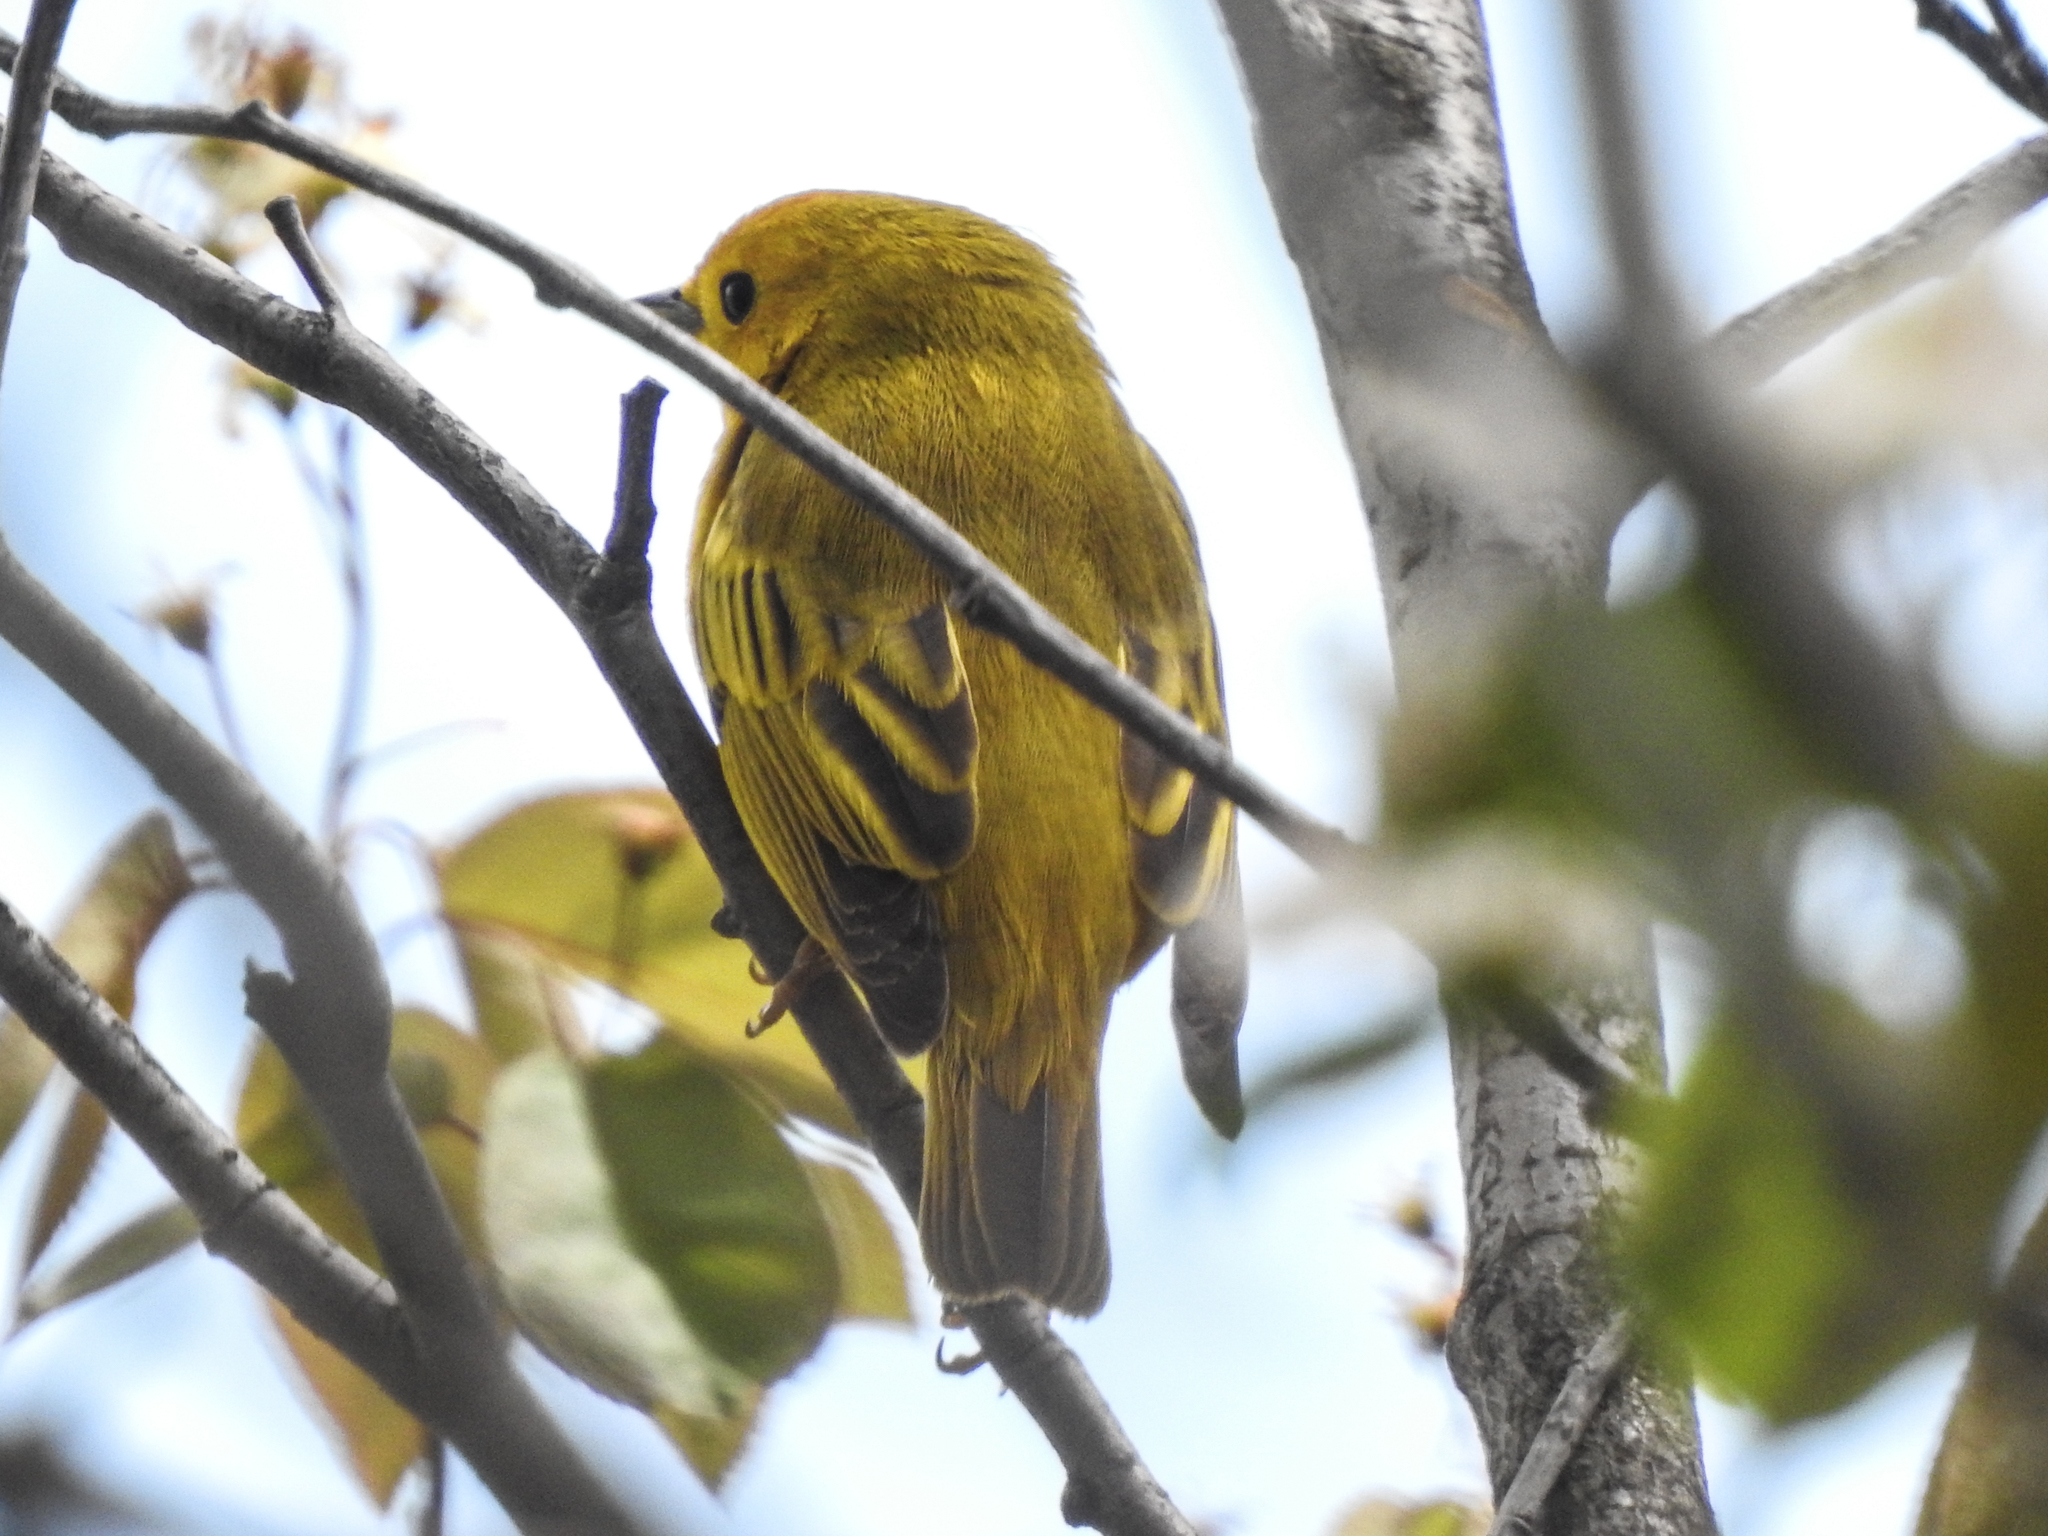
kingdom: Animalia
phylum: Chordata
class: Aves
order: Passeriformes
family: Parulidae
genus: Setophaga
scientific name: Setophaga petechia
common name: Yellow warbler
